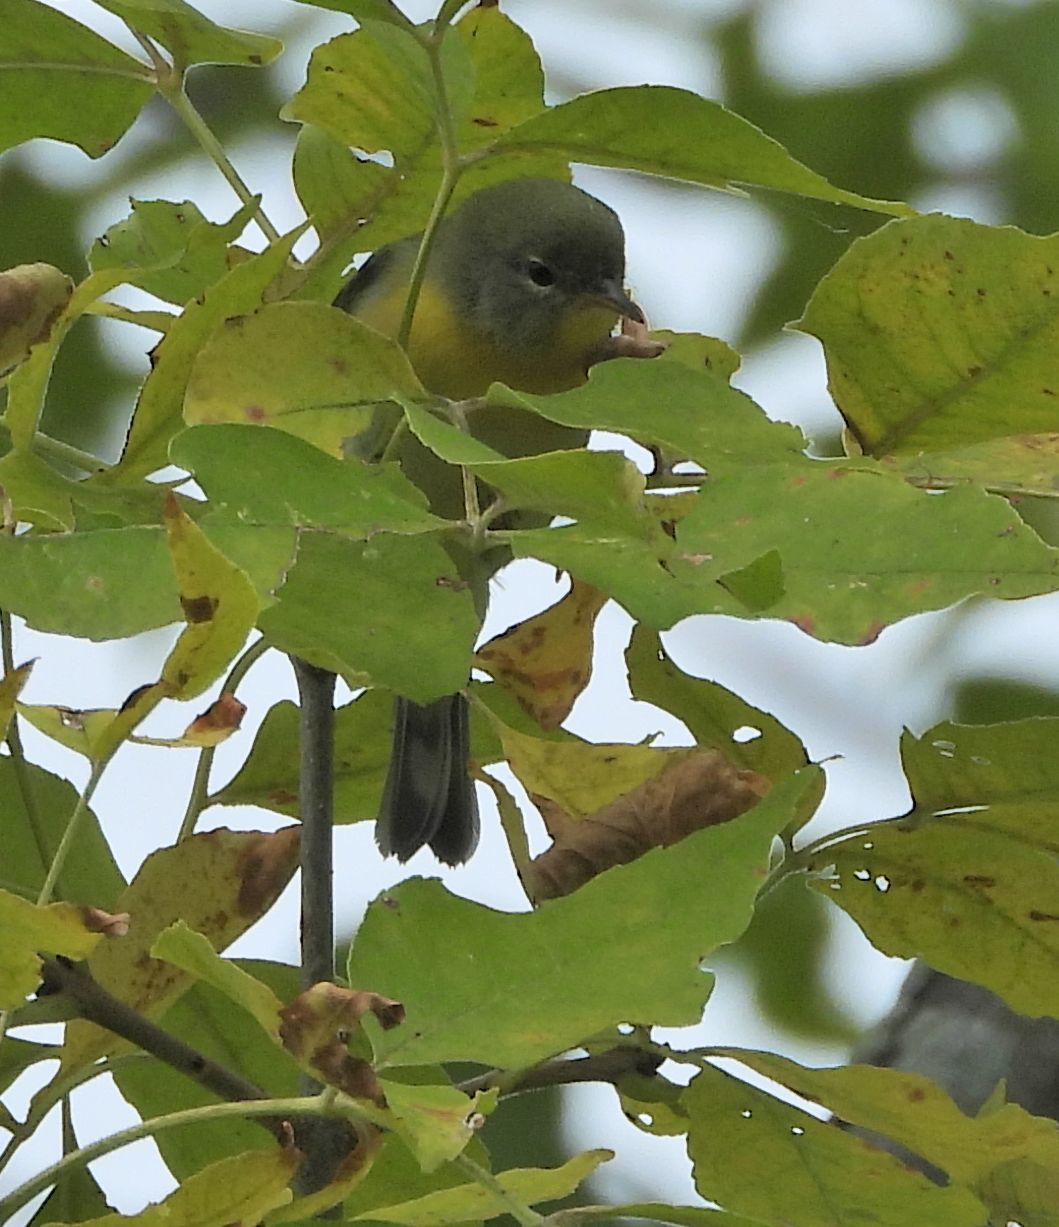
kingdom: Animalia
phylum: Chordata
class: Aves
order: Passeriformes
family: Parulidae
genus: Setophaga
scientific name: Setophaga americana
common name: Northern parula
